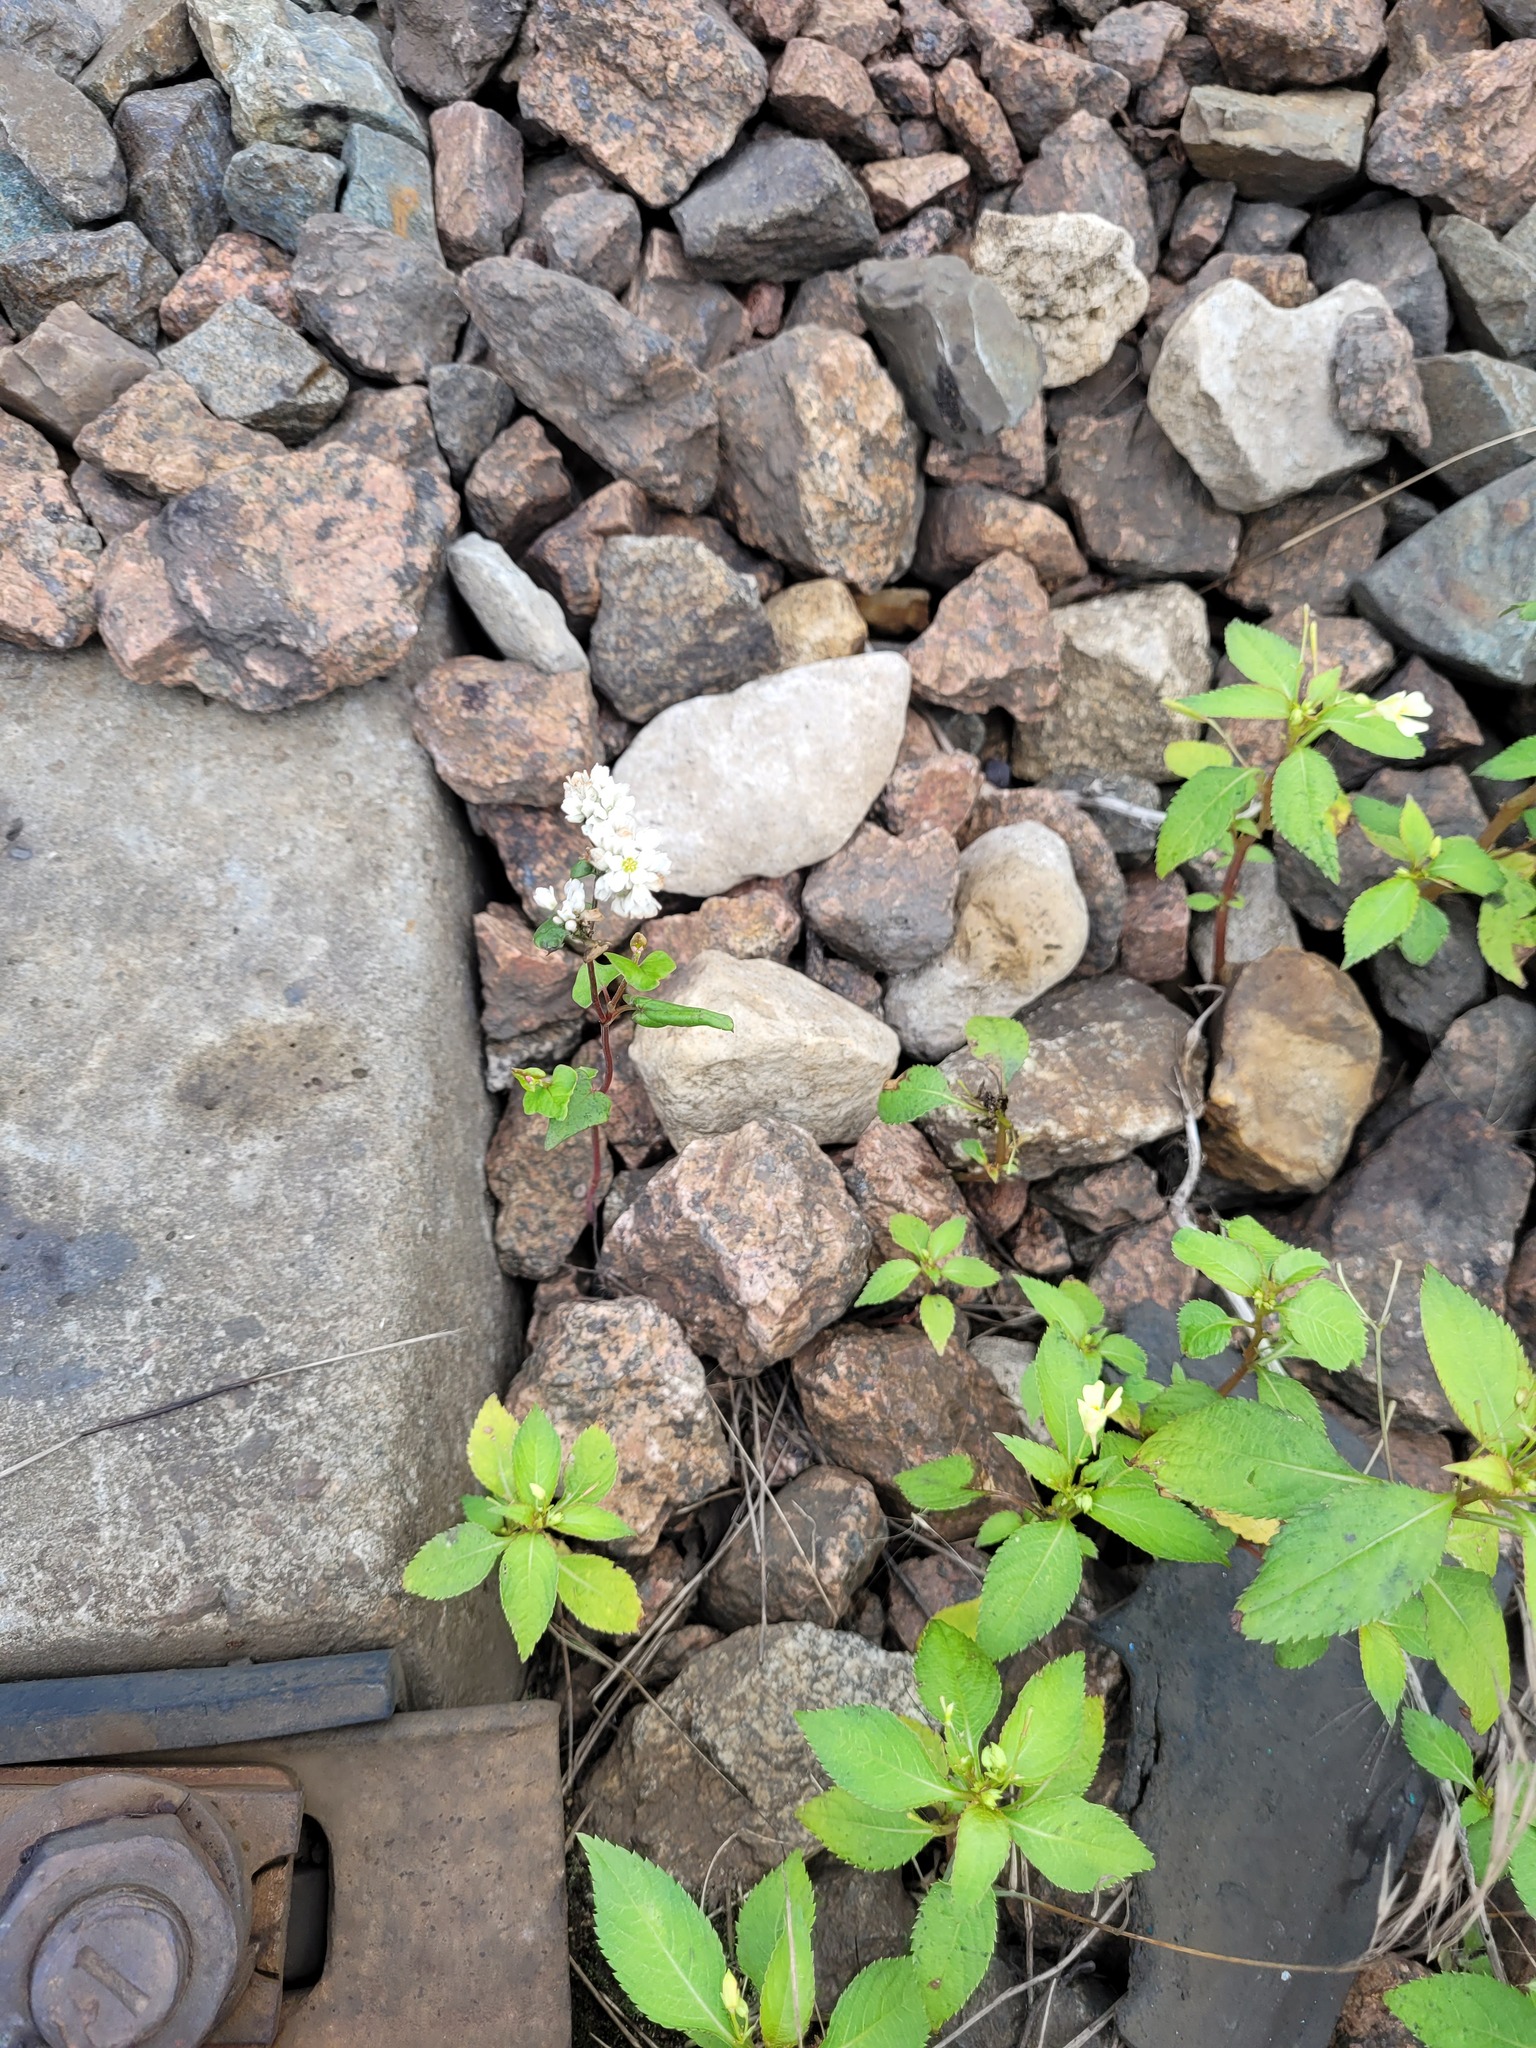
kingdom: Plantae
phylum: Tracheophyta
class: Magnoliopsida
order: Caryophyllales
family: Polygonaceae
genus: Fagopyrum
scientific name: Fagopyrum esculentum
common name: Buckwheat
